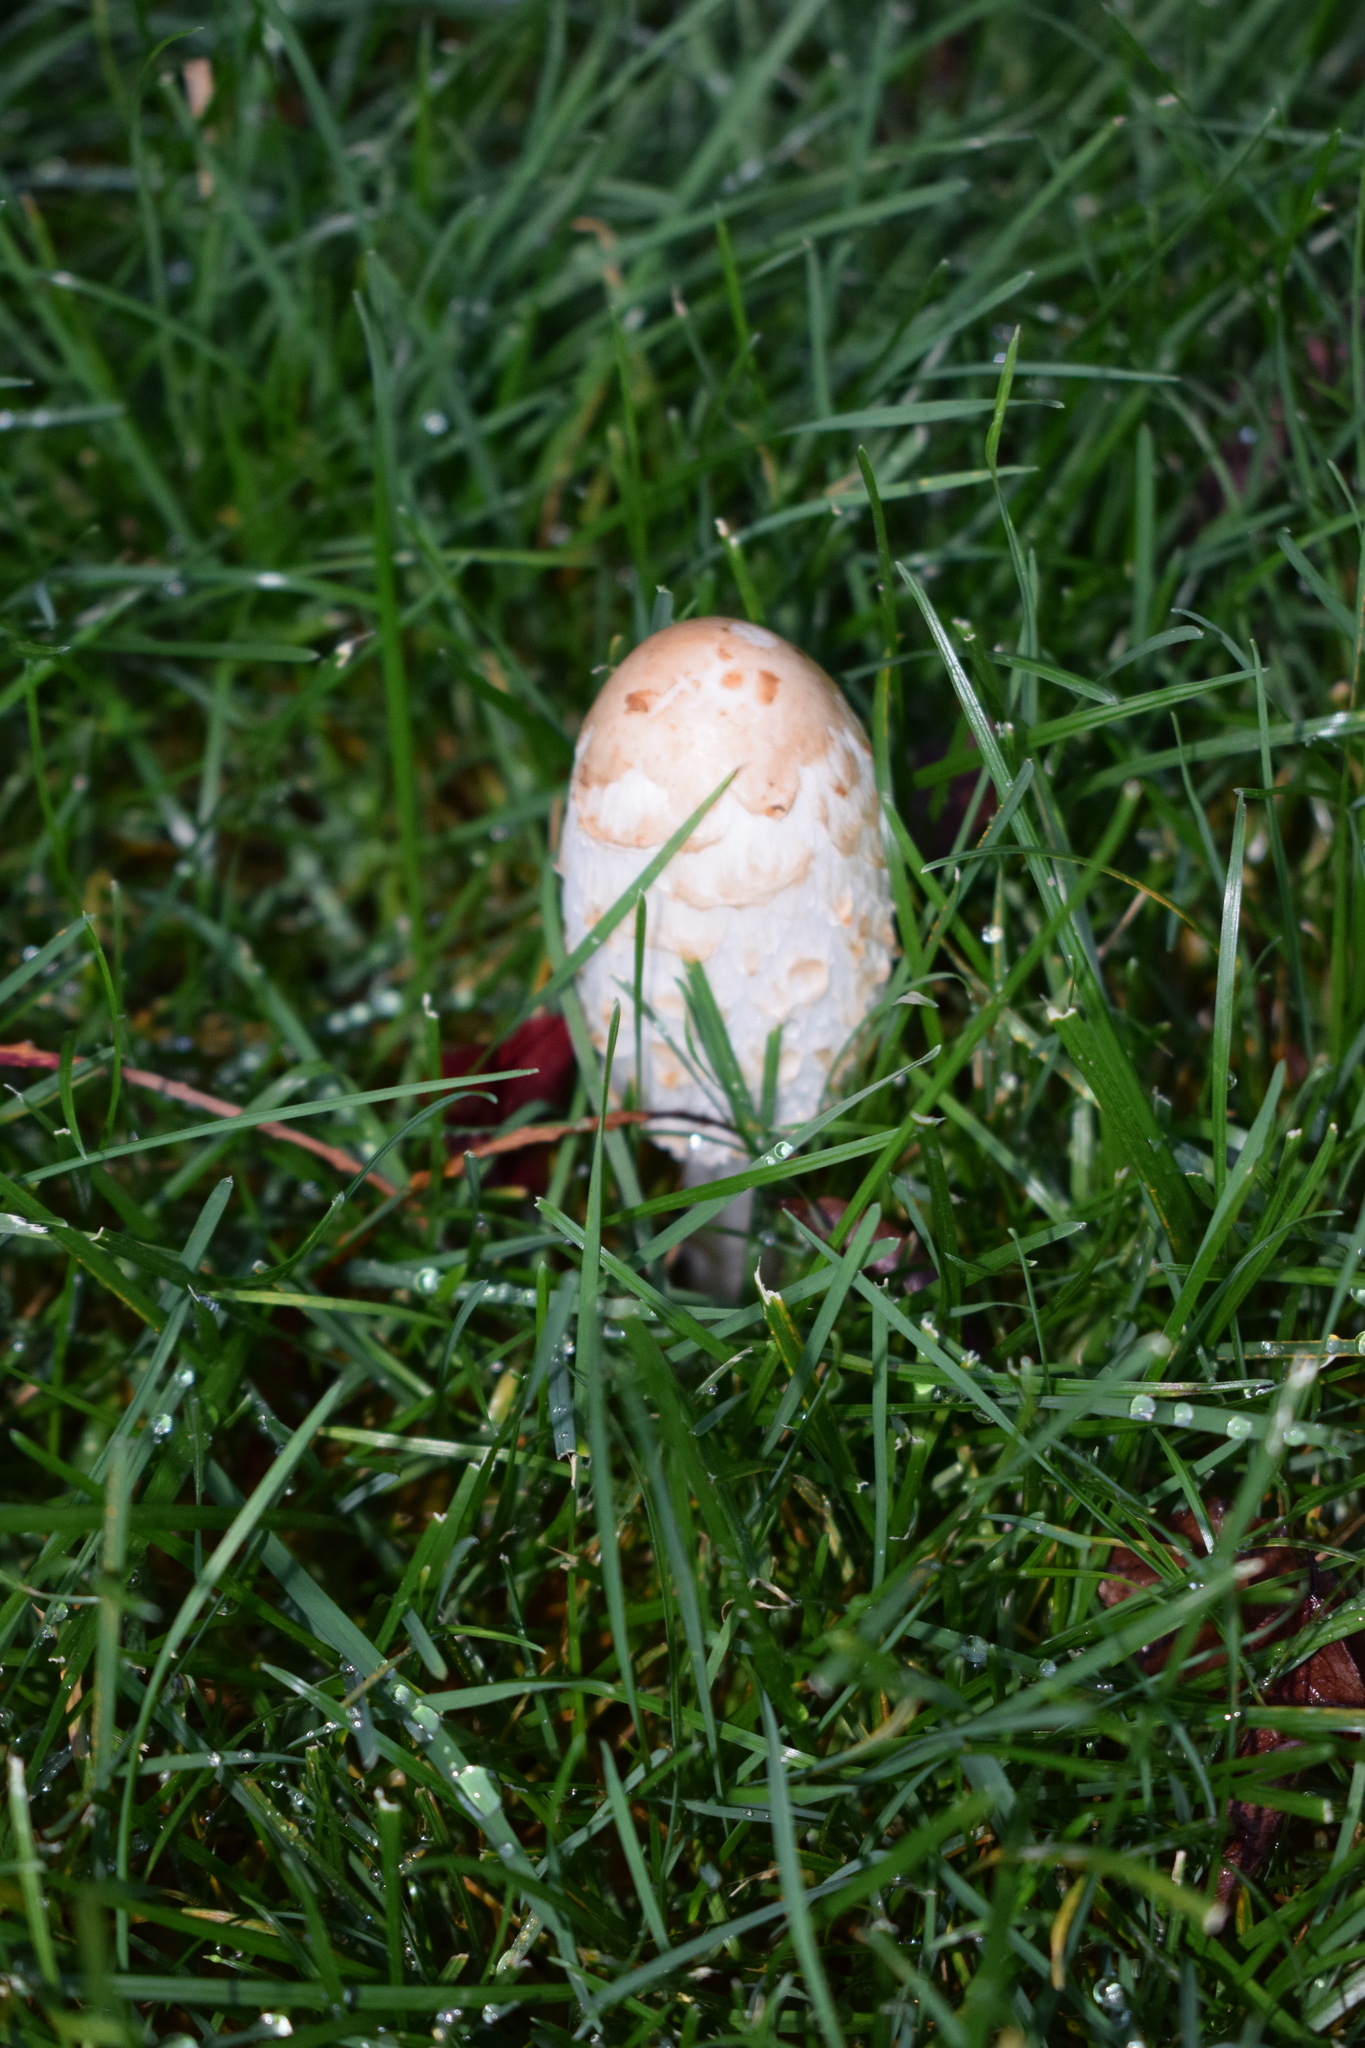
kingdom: Fungi
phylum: Basidiomycota
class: Agaricomycetes
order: Agaricales
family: Agaricaceae
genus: Coprinus
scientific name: Coprinus comatus
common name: Lawyer's wig
